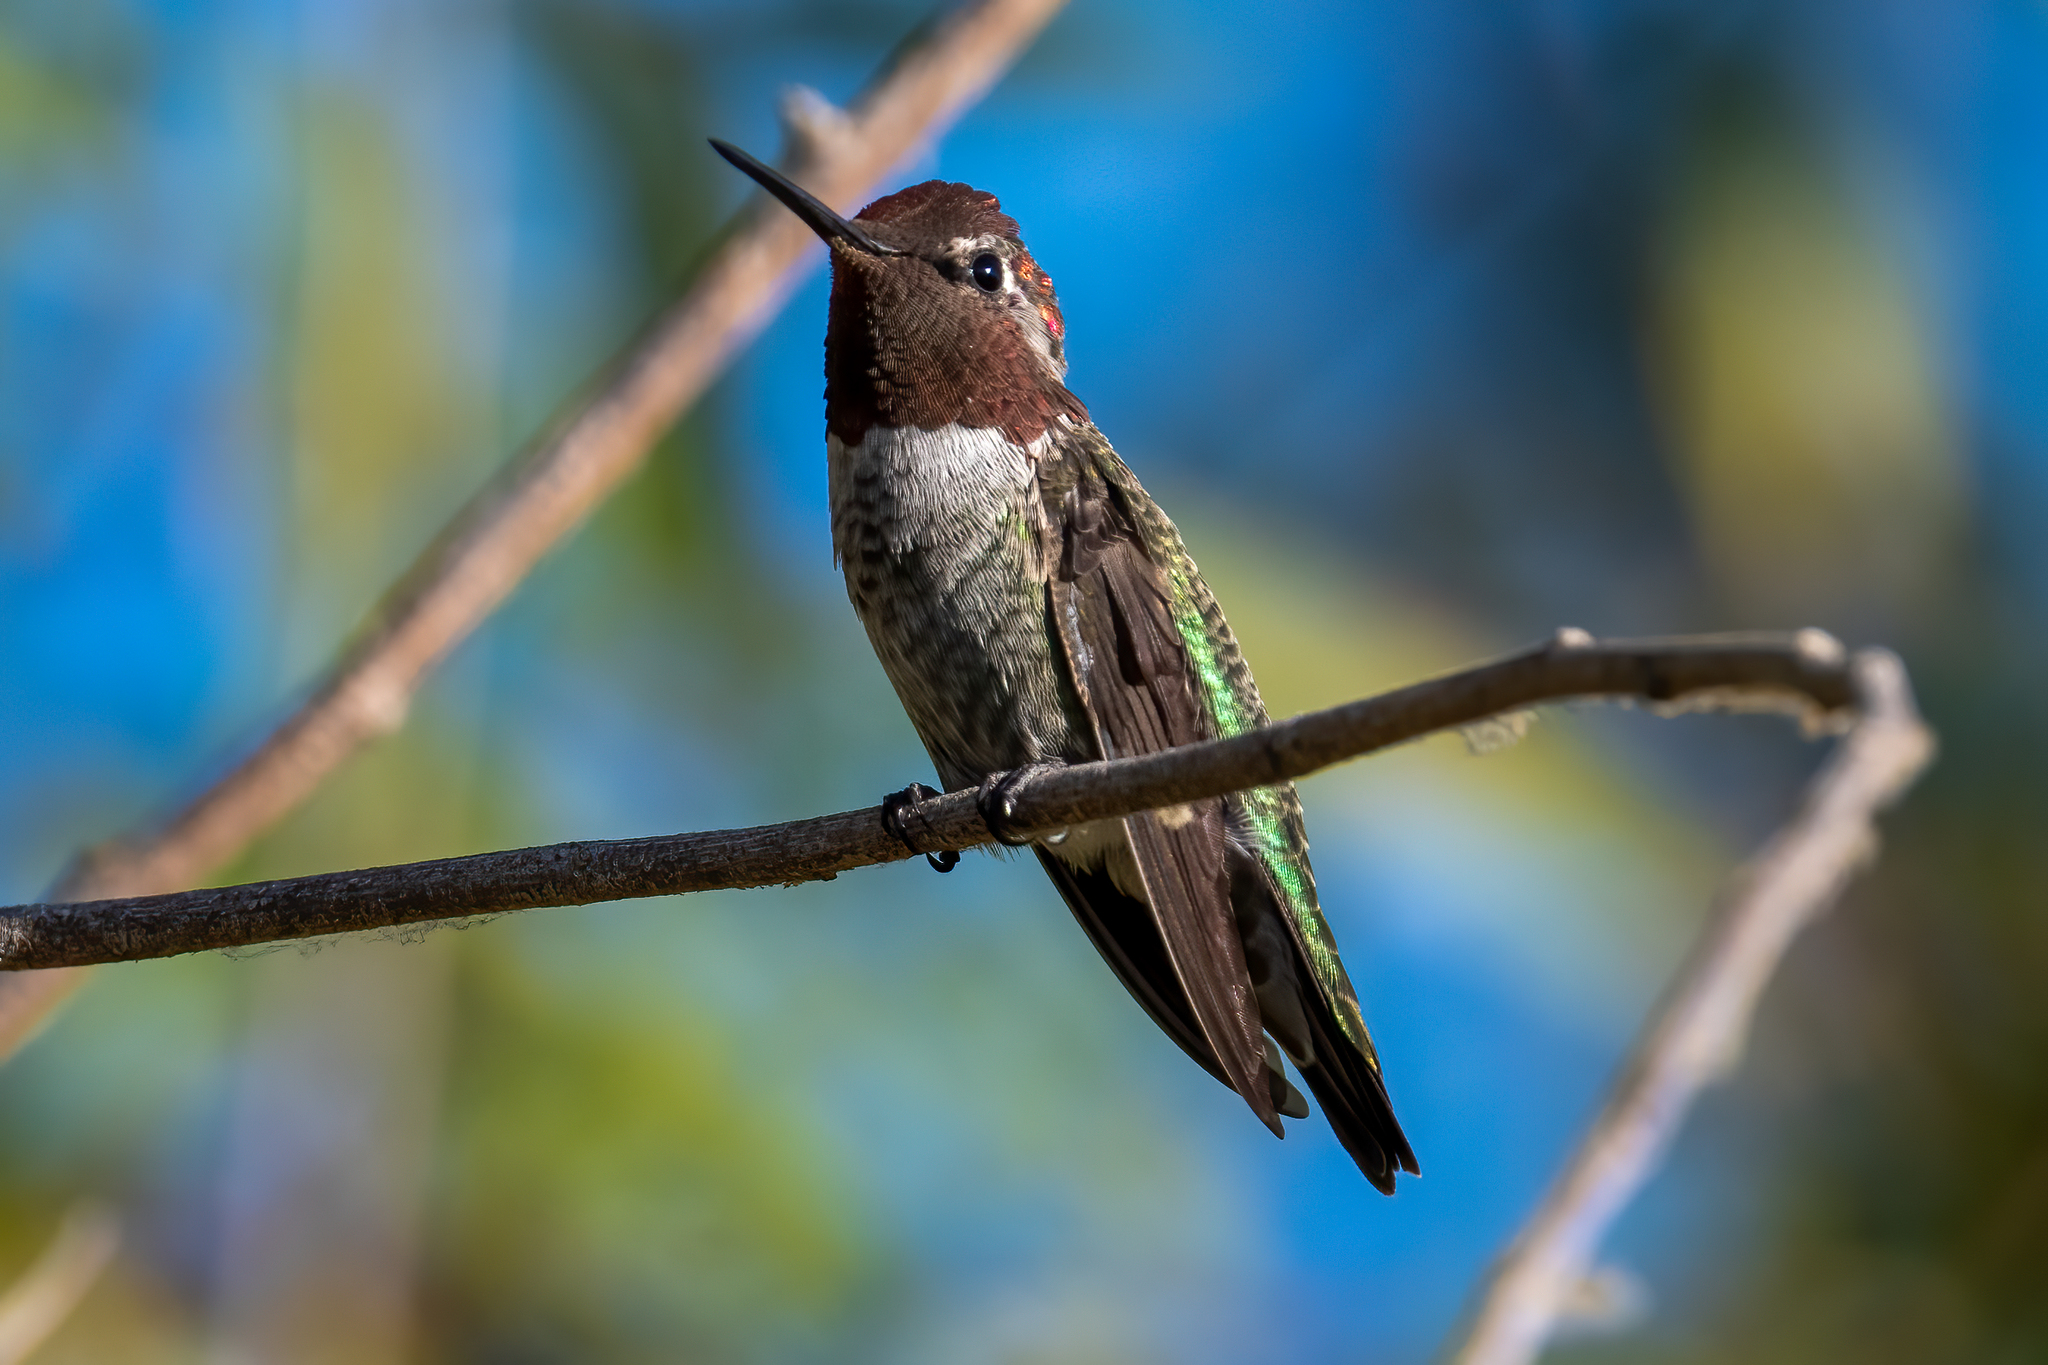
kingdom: Animalia
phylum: Chordata
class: Aves
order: Apodiformes
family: Trochilidae
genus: Calypte
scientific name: Calypte anna
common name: Anna's hummingbird
